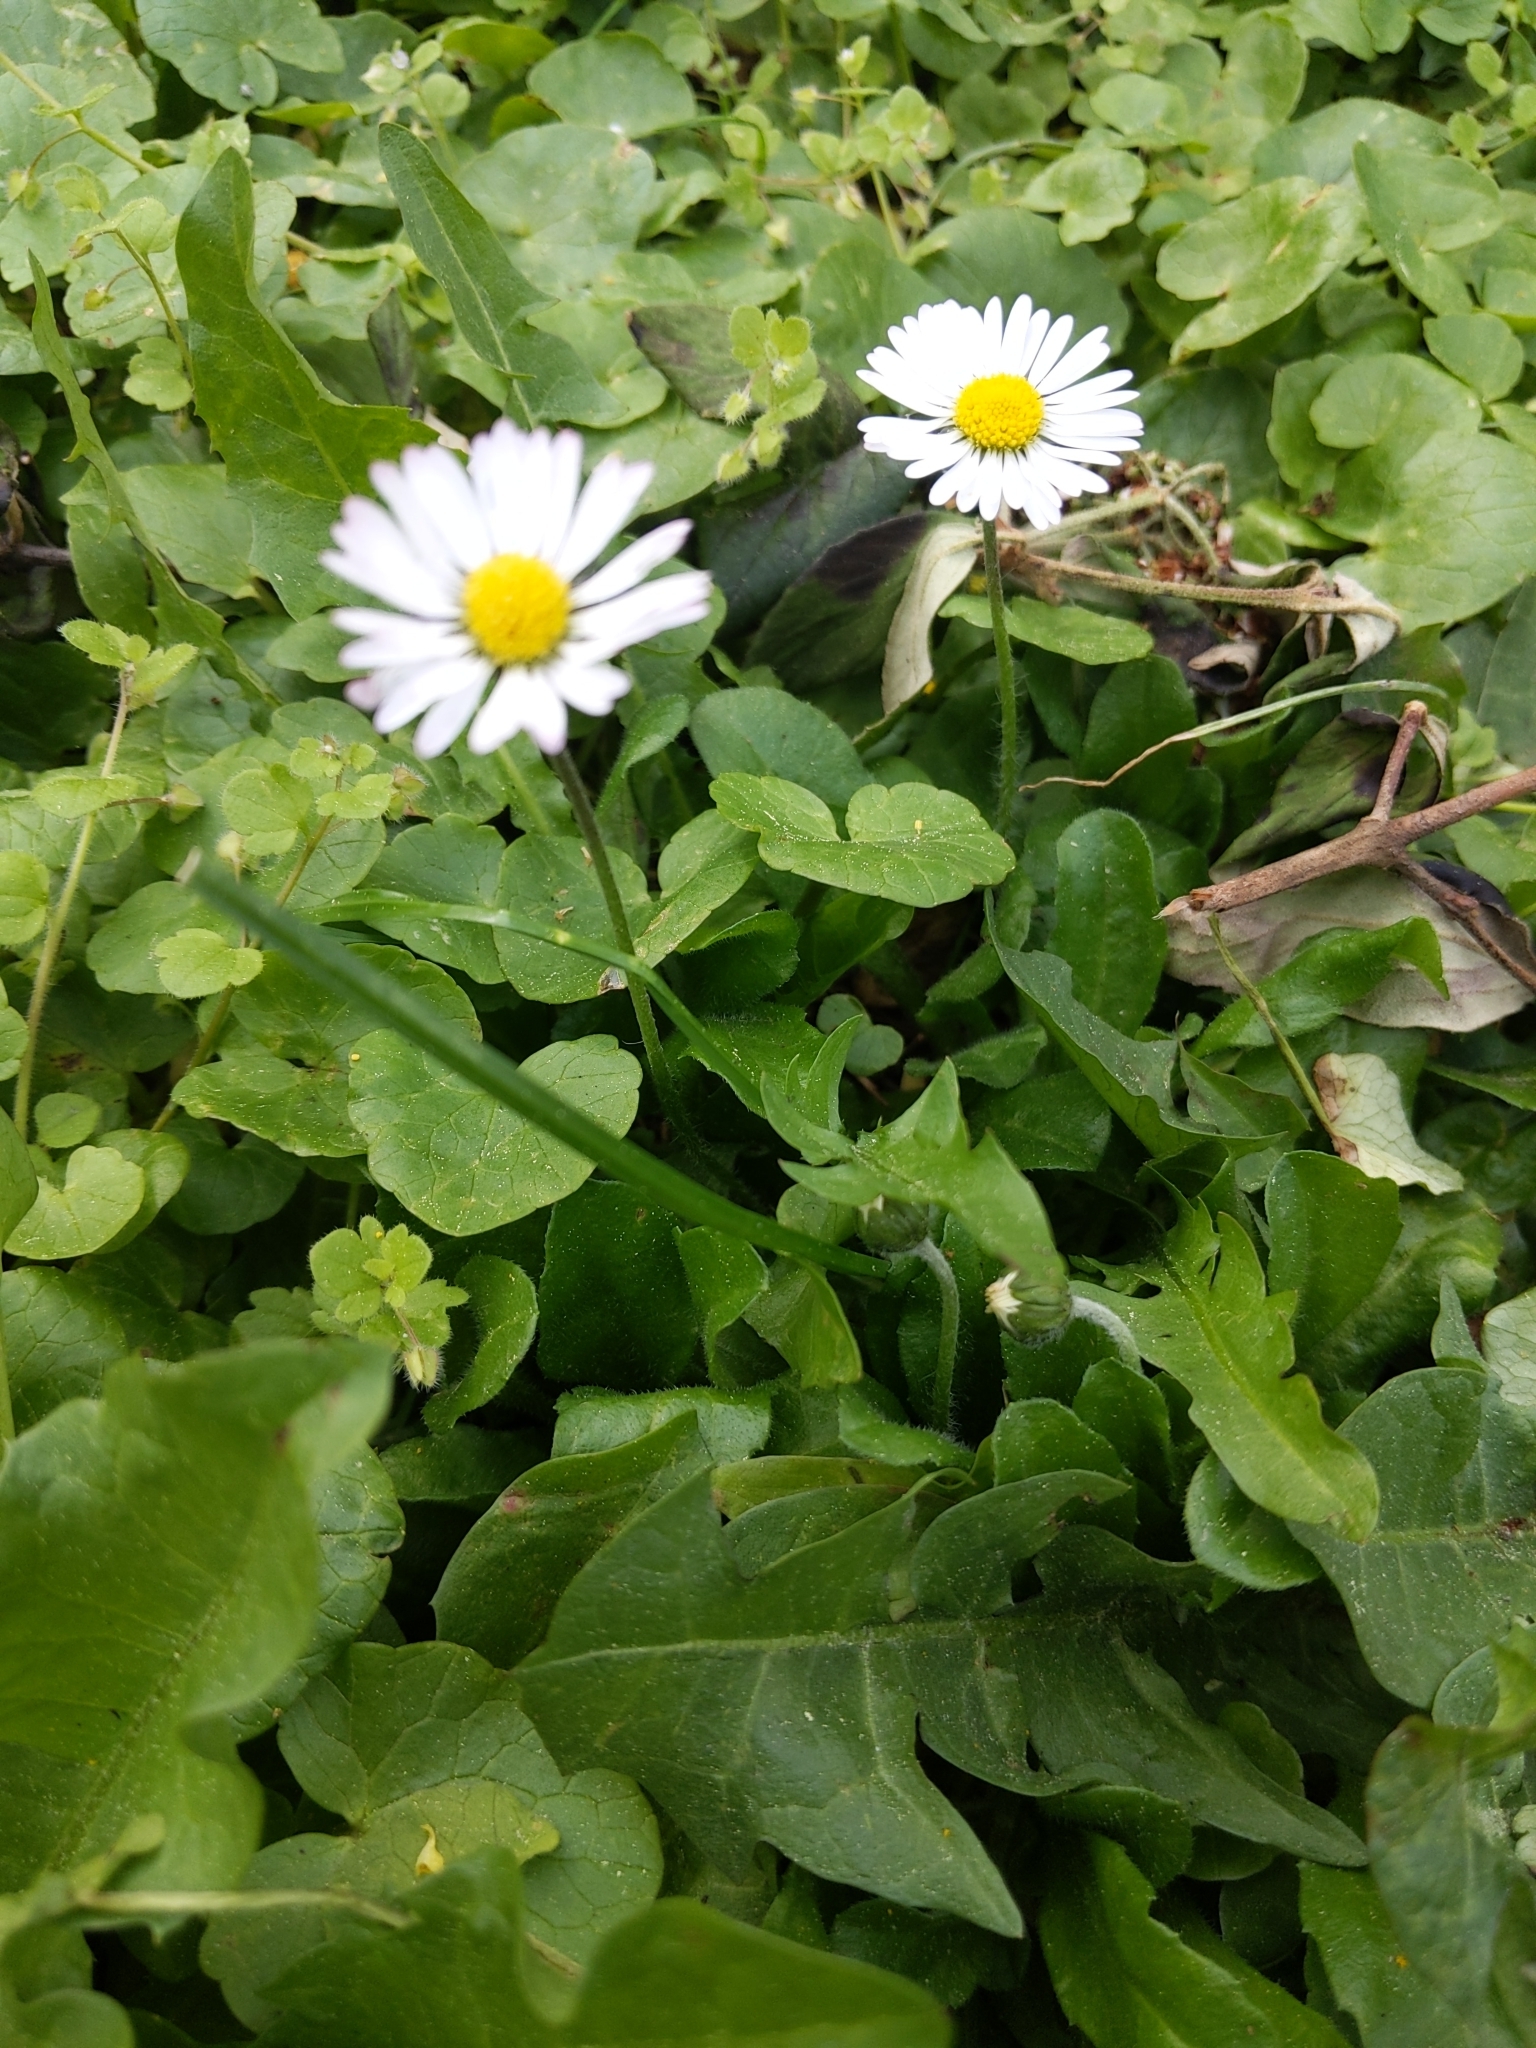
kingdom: Plantae
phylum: Tracheophyta
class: Magnoliopsida
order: Asterales
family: Asteraceae
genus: Bellis
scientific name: Bellis perennis
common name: Lawndaisy
